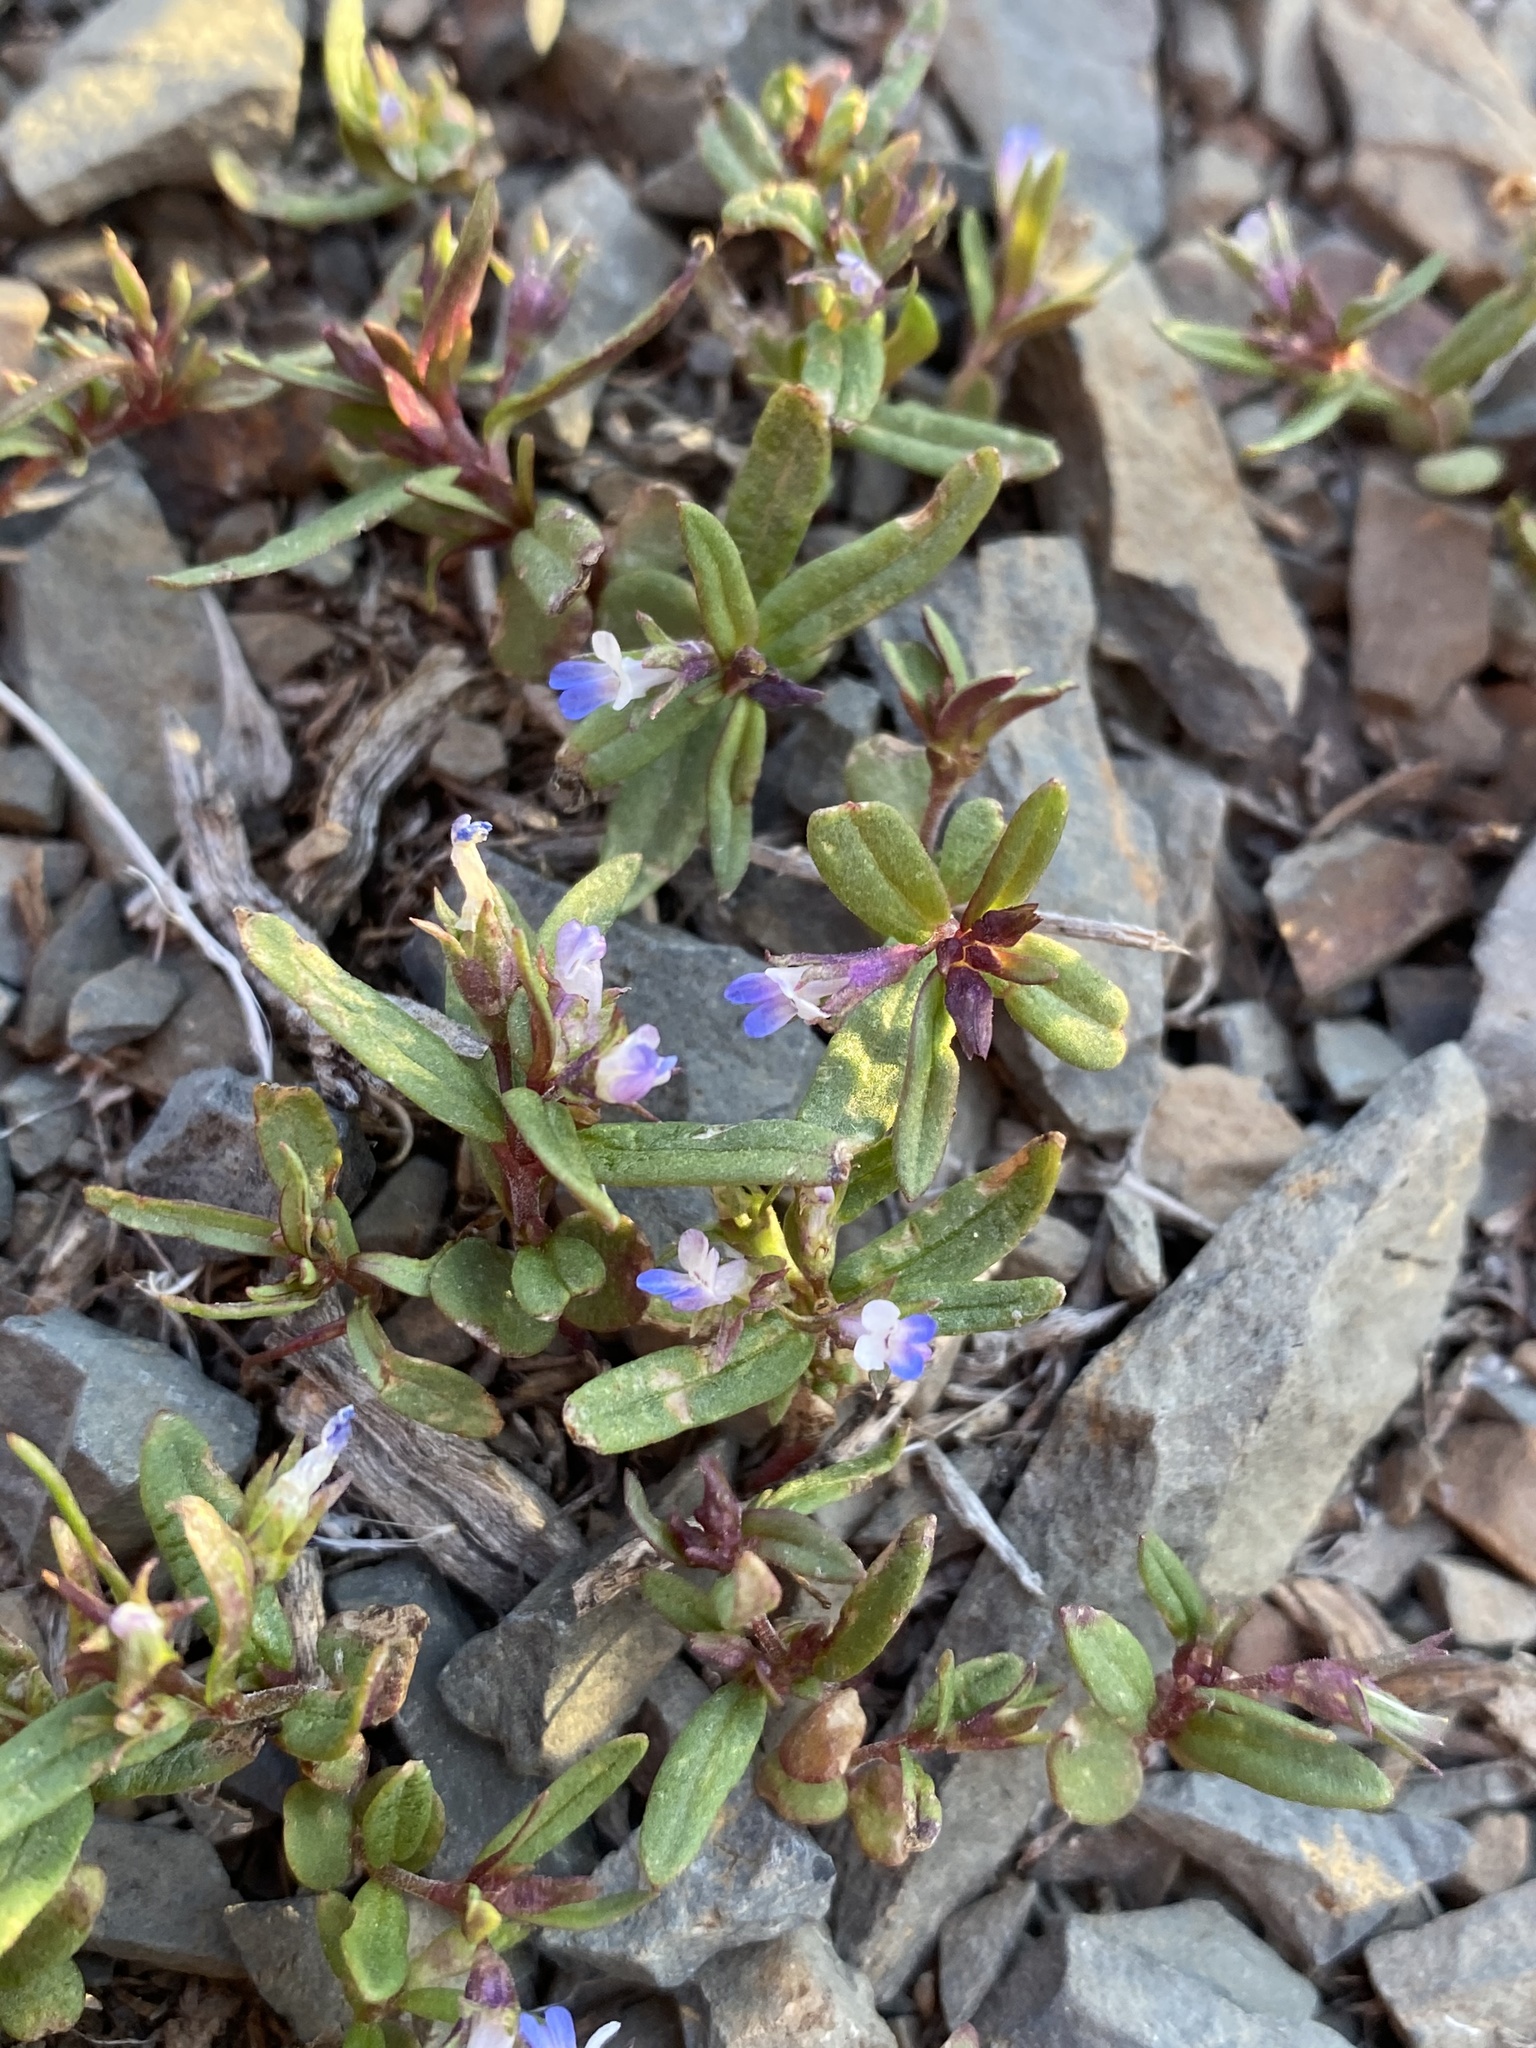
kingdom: Plantae
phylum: Tracheophyta
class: Magnoliopsida
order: Lamiales
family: Plantaginaceae
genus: Collinsia
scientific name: Collinsia parviflora
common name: Blue-lips
